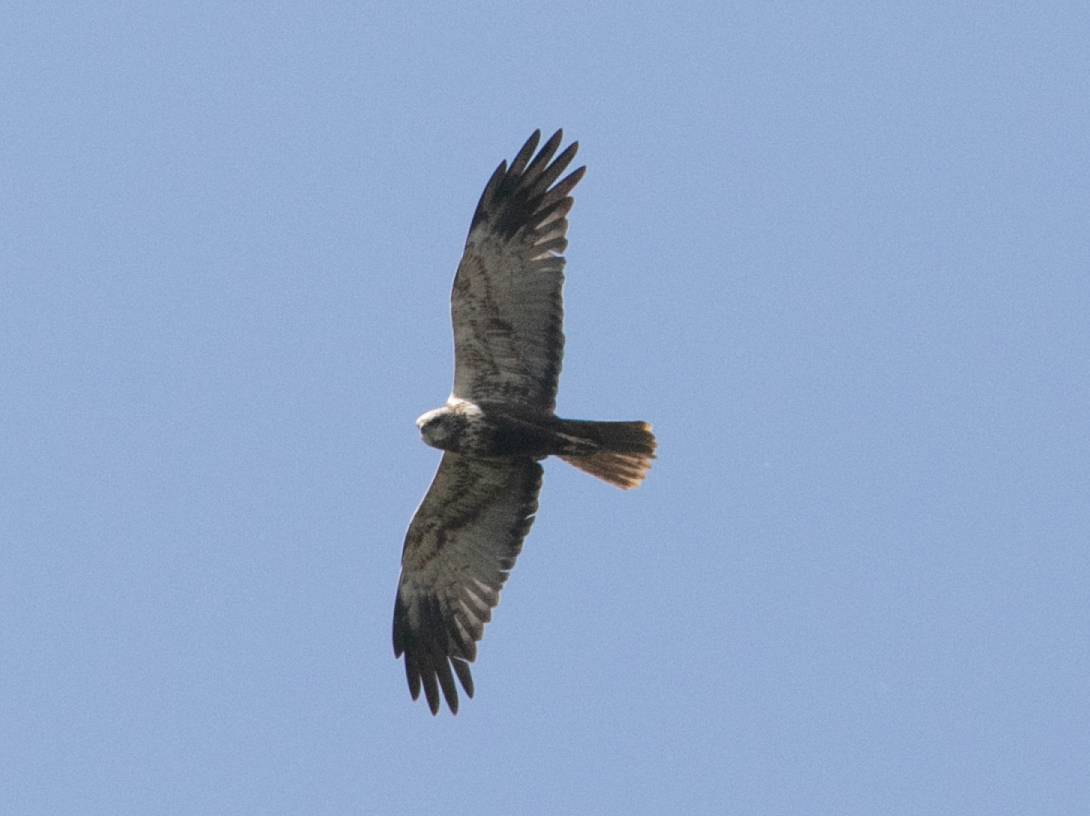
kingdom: Animalia
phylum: Chordata
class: Aves
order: Accipitriformes
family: Accipitridae
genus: Circus
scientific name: Circus aeruginosus
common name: Western marsh harrier
